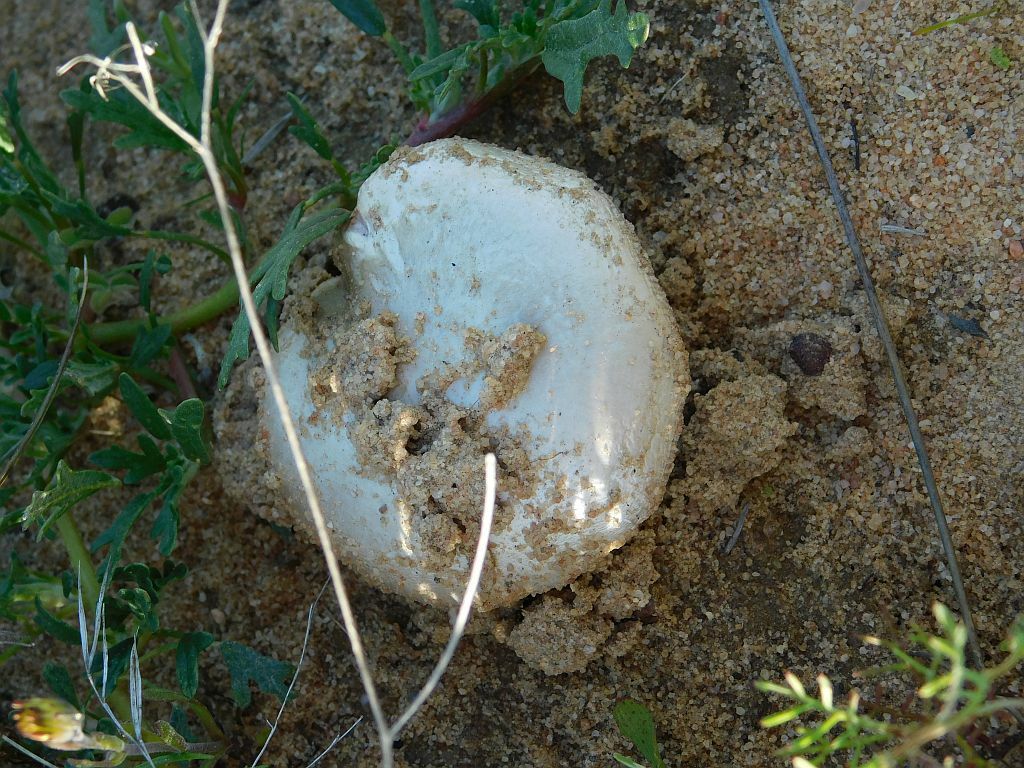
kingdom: Fungi
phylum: Basidiomycota
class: Agaricomycetes
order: Agaricales
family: Pluteaceae
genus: Volvopluteus
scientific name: Volvopluteus gloiocephalus
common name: Stubble rosegill
